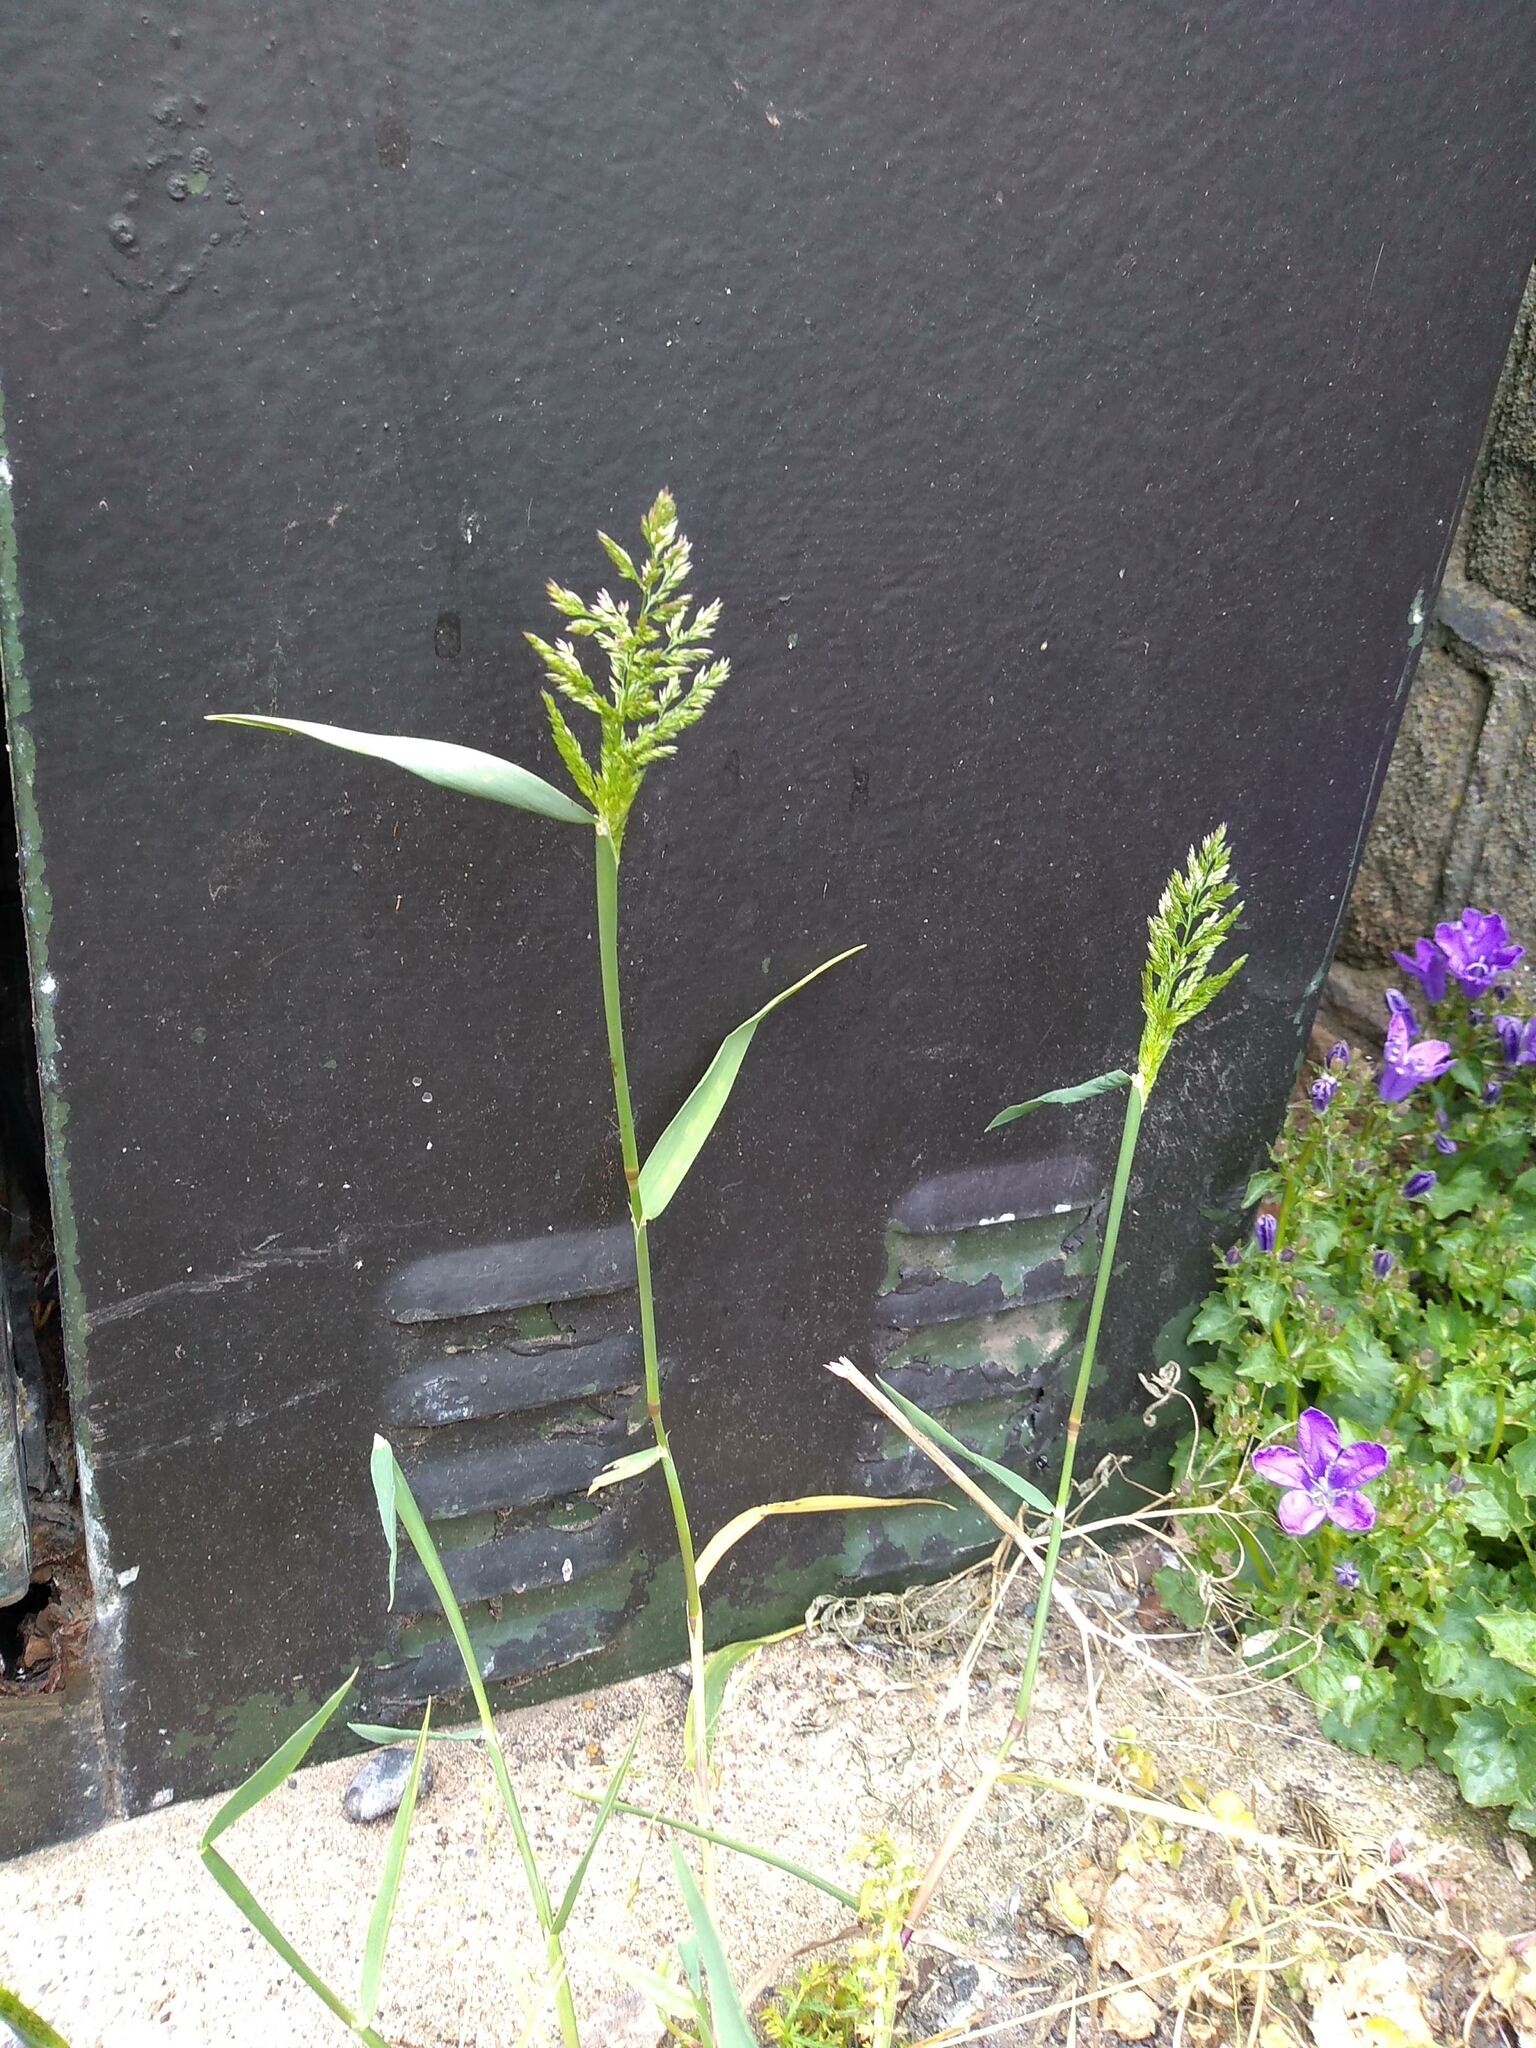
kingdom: Plantae
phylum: Tracheophyta
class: Liliopsida
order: Poales
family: Poaceae
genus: Polypogon
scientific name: Polypogon viridis
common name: Water bent
